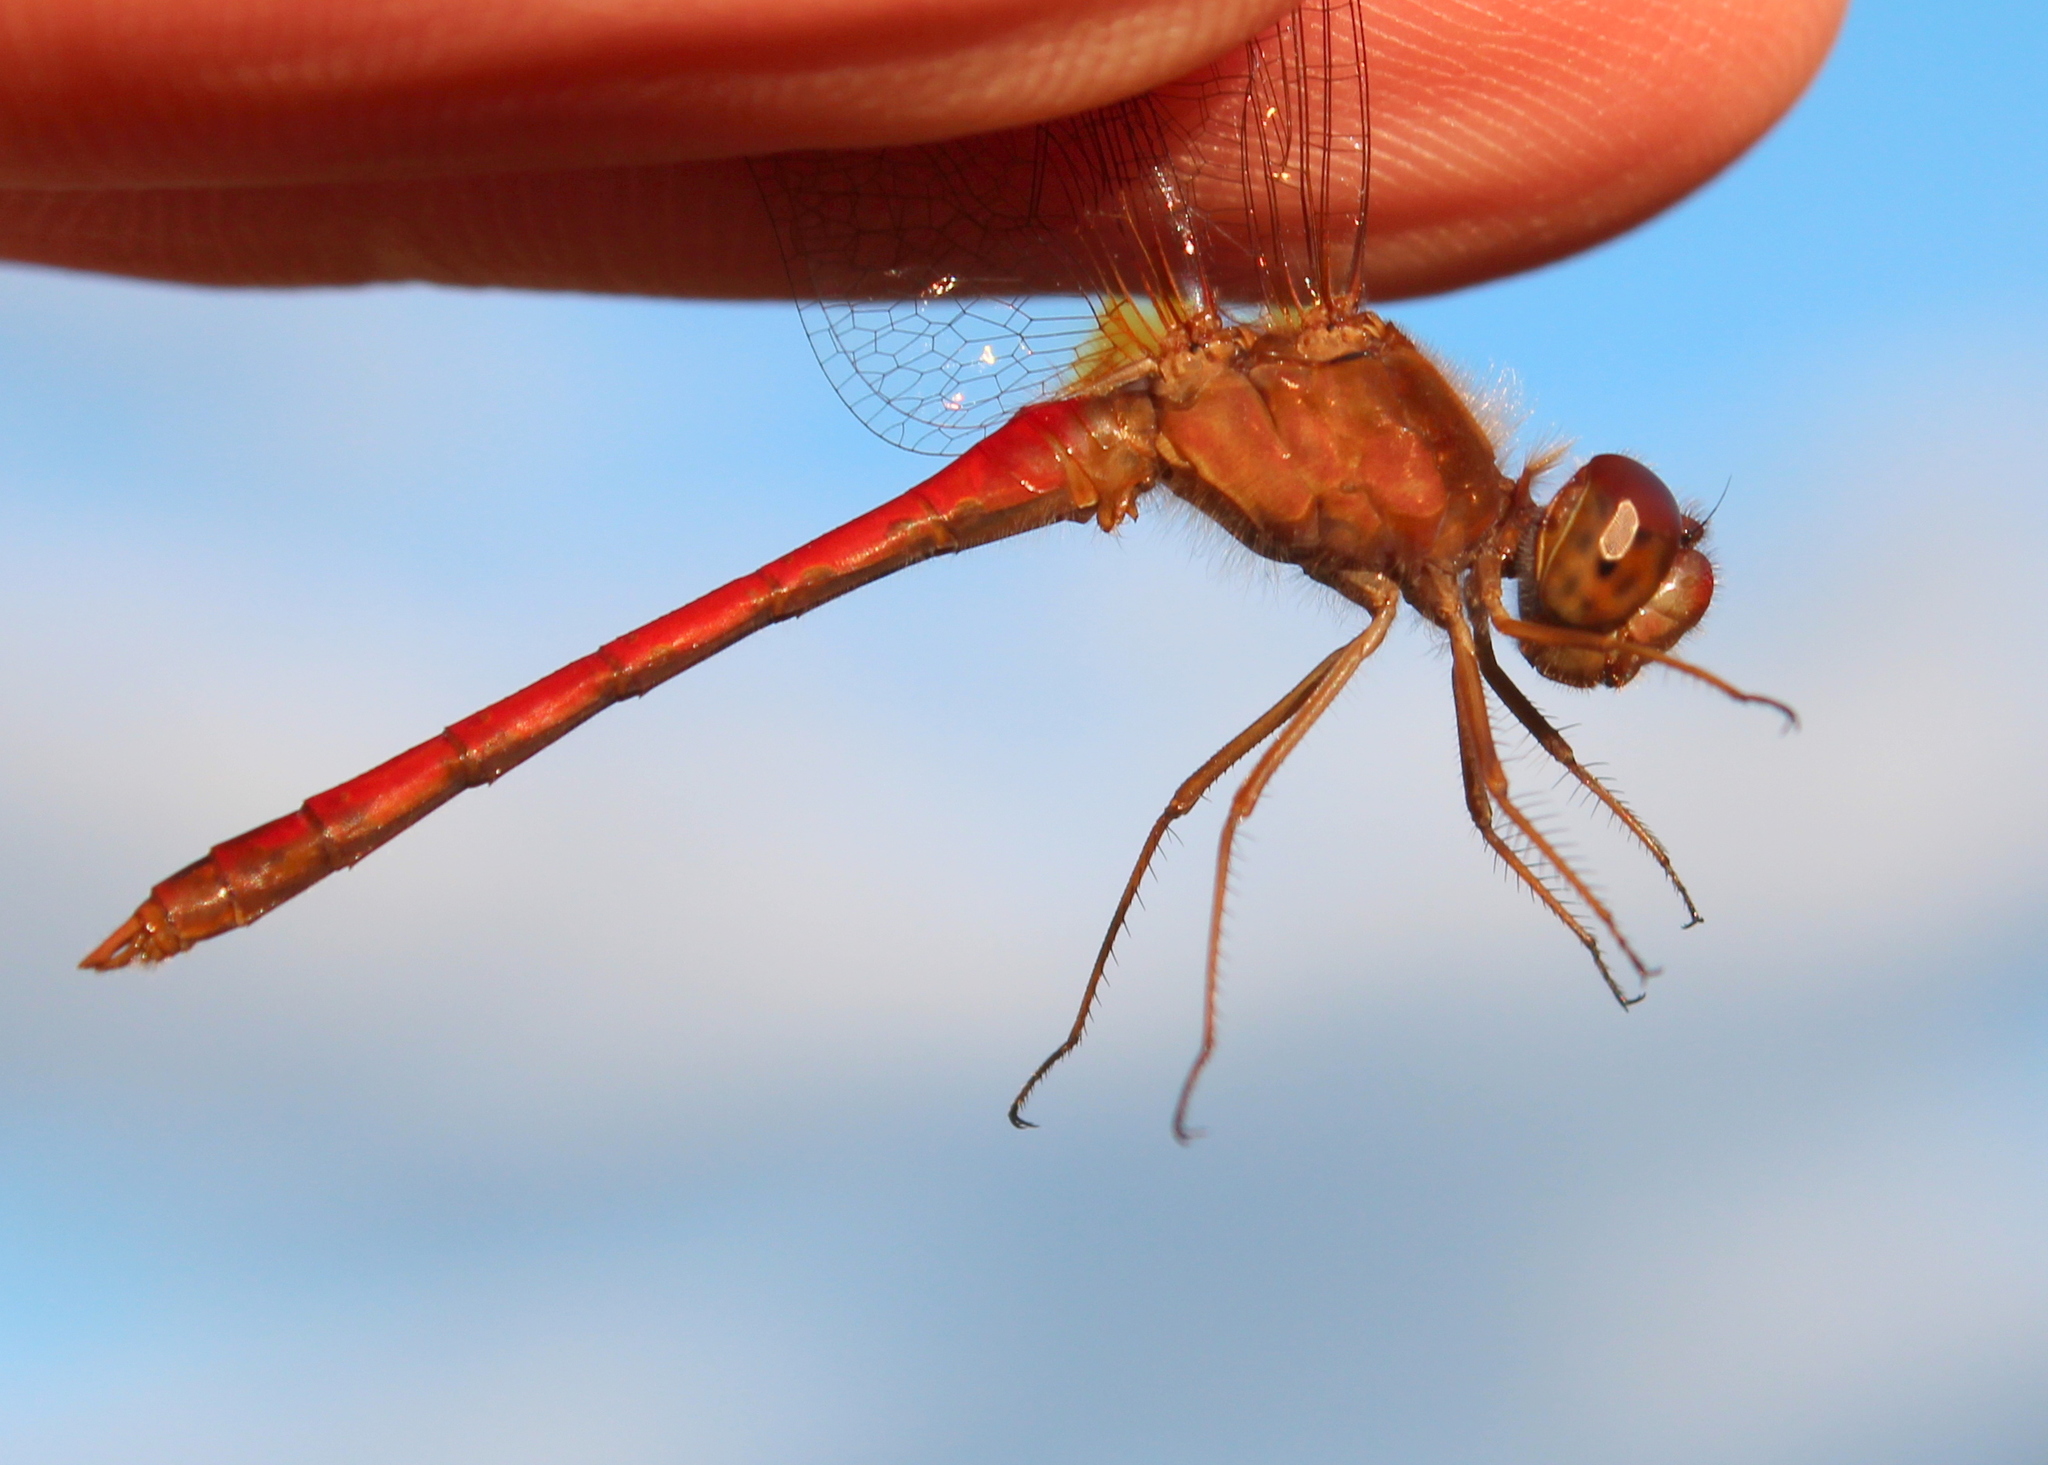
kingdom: Animalia
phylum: Arthropoda
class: Insecta
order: Odonata
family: Libellulidae
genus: Sympetrum
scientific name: Sympetrum vicinum
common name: Autumn meadowhawk
